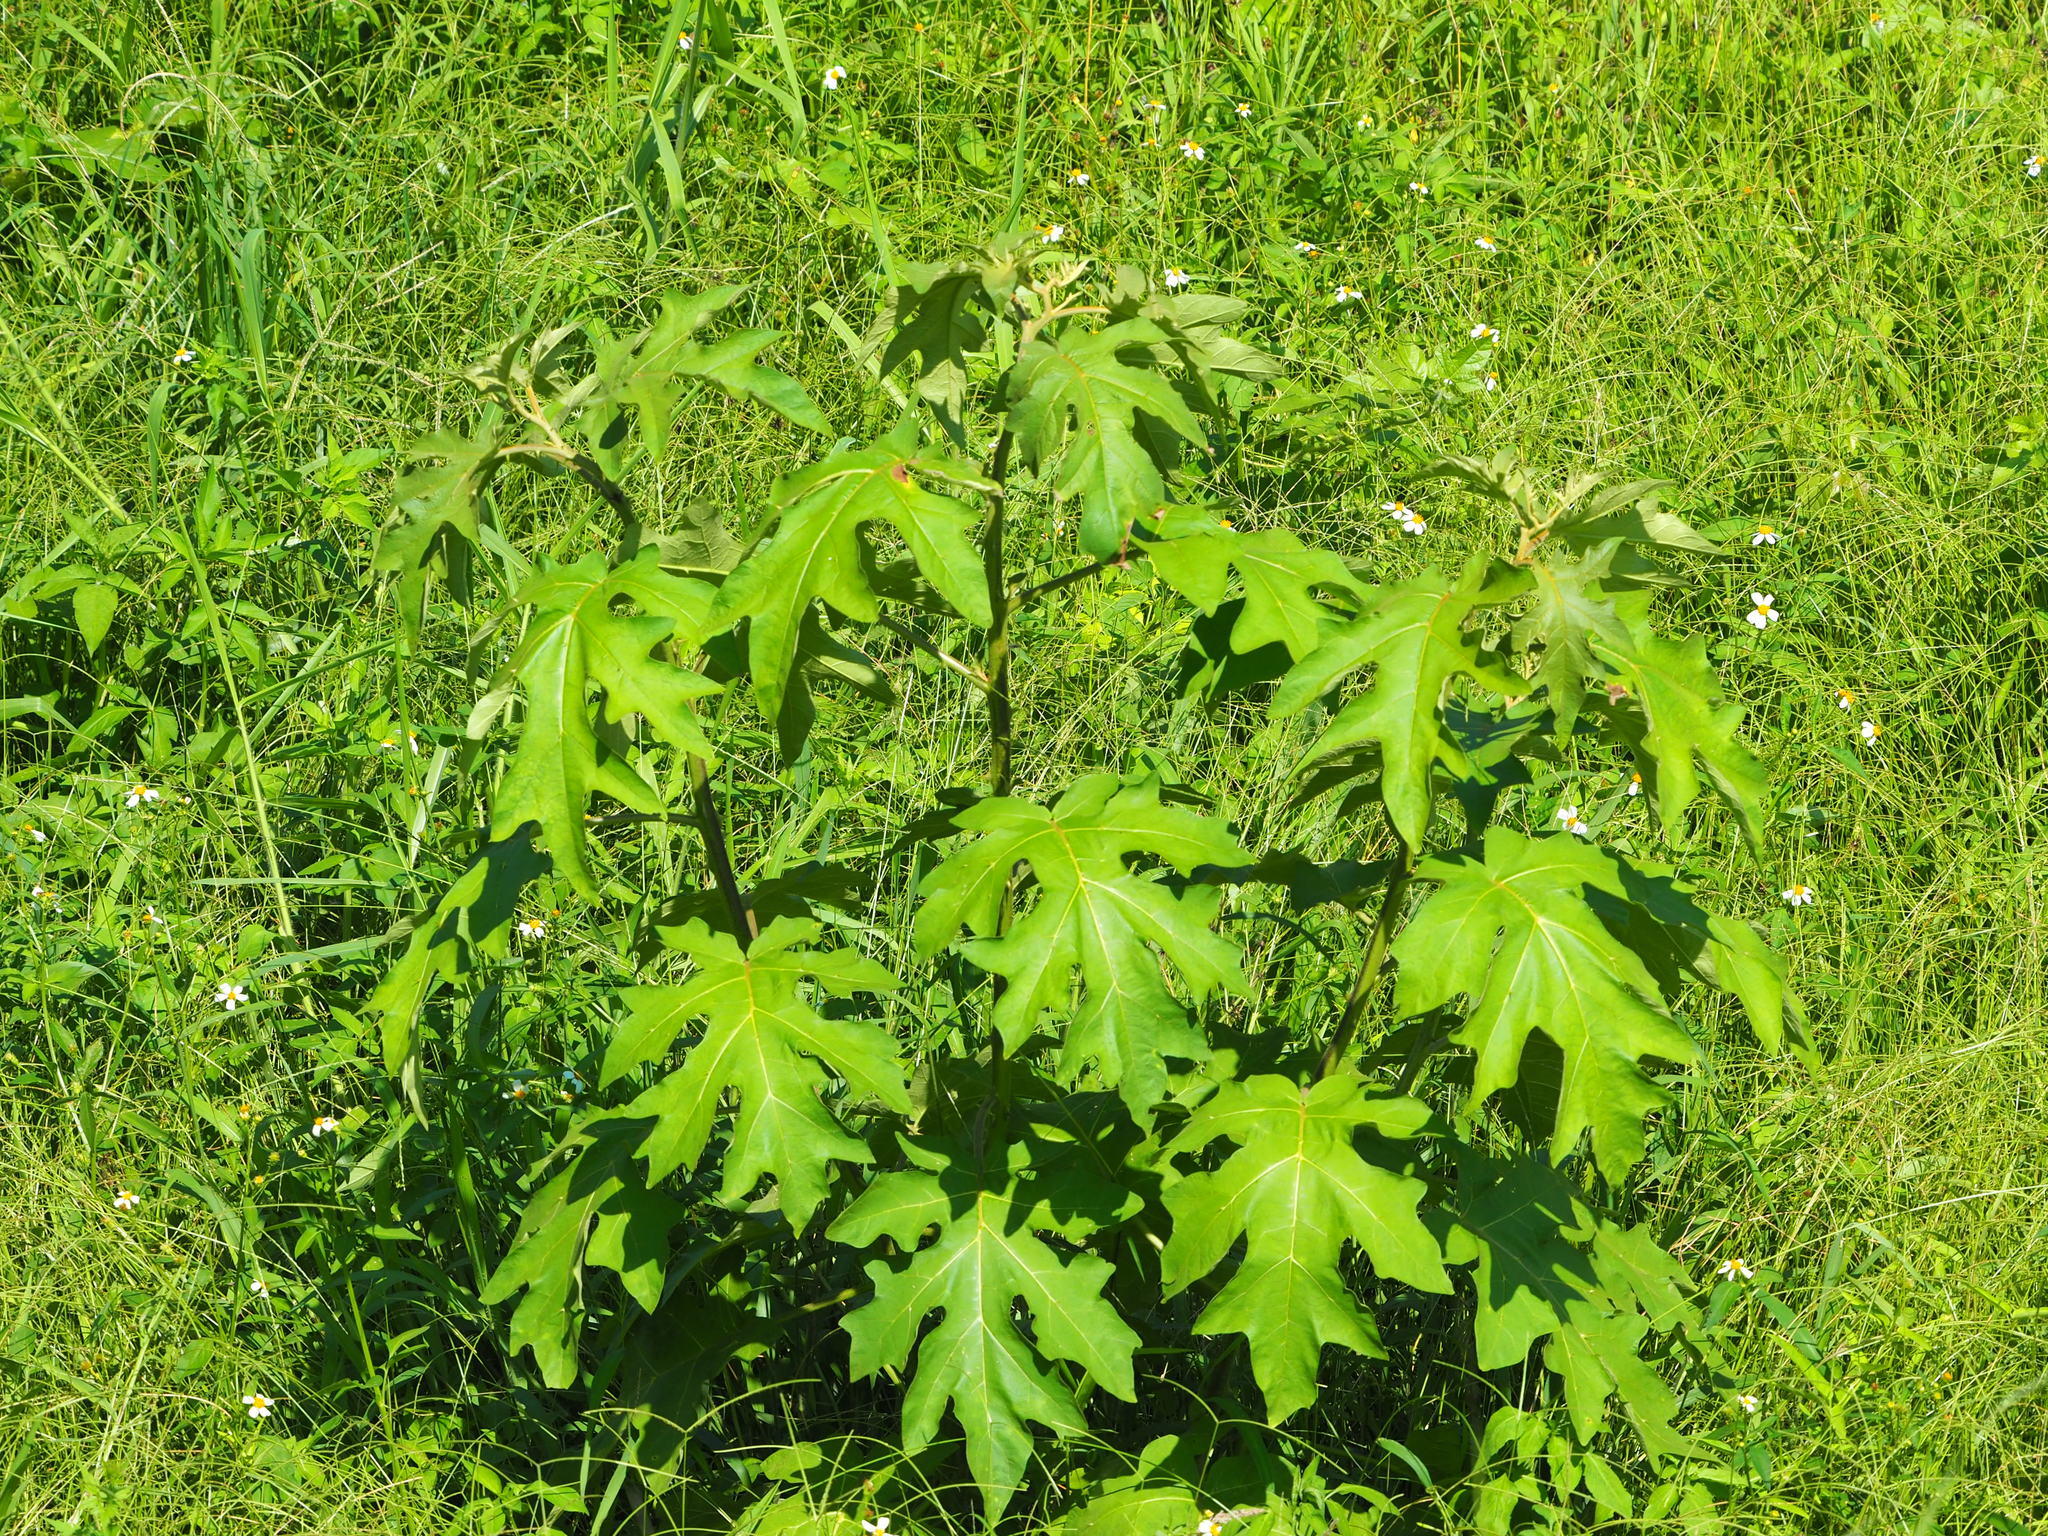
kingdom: Plantae
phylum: Tracheophyta
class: Magnoliopsida
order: Solanales
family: Solanaceae
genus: Solanum
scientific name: Solanum torvum
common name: Turkey berry
